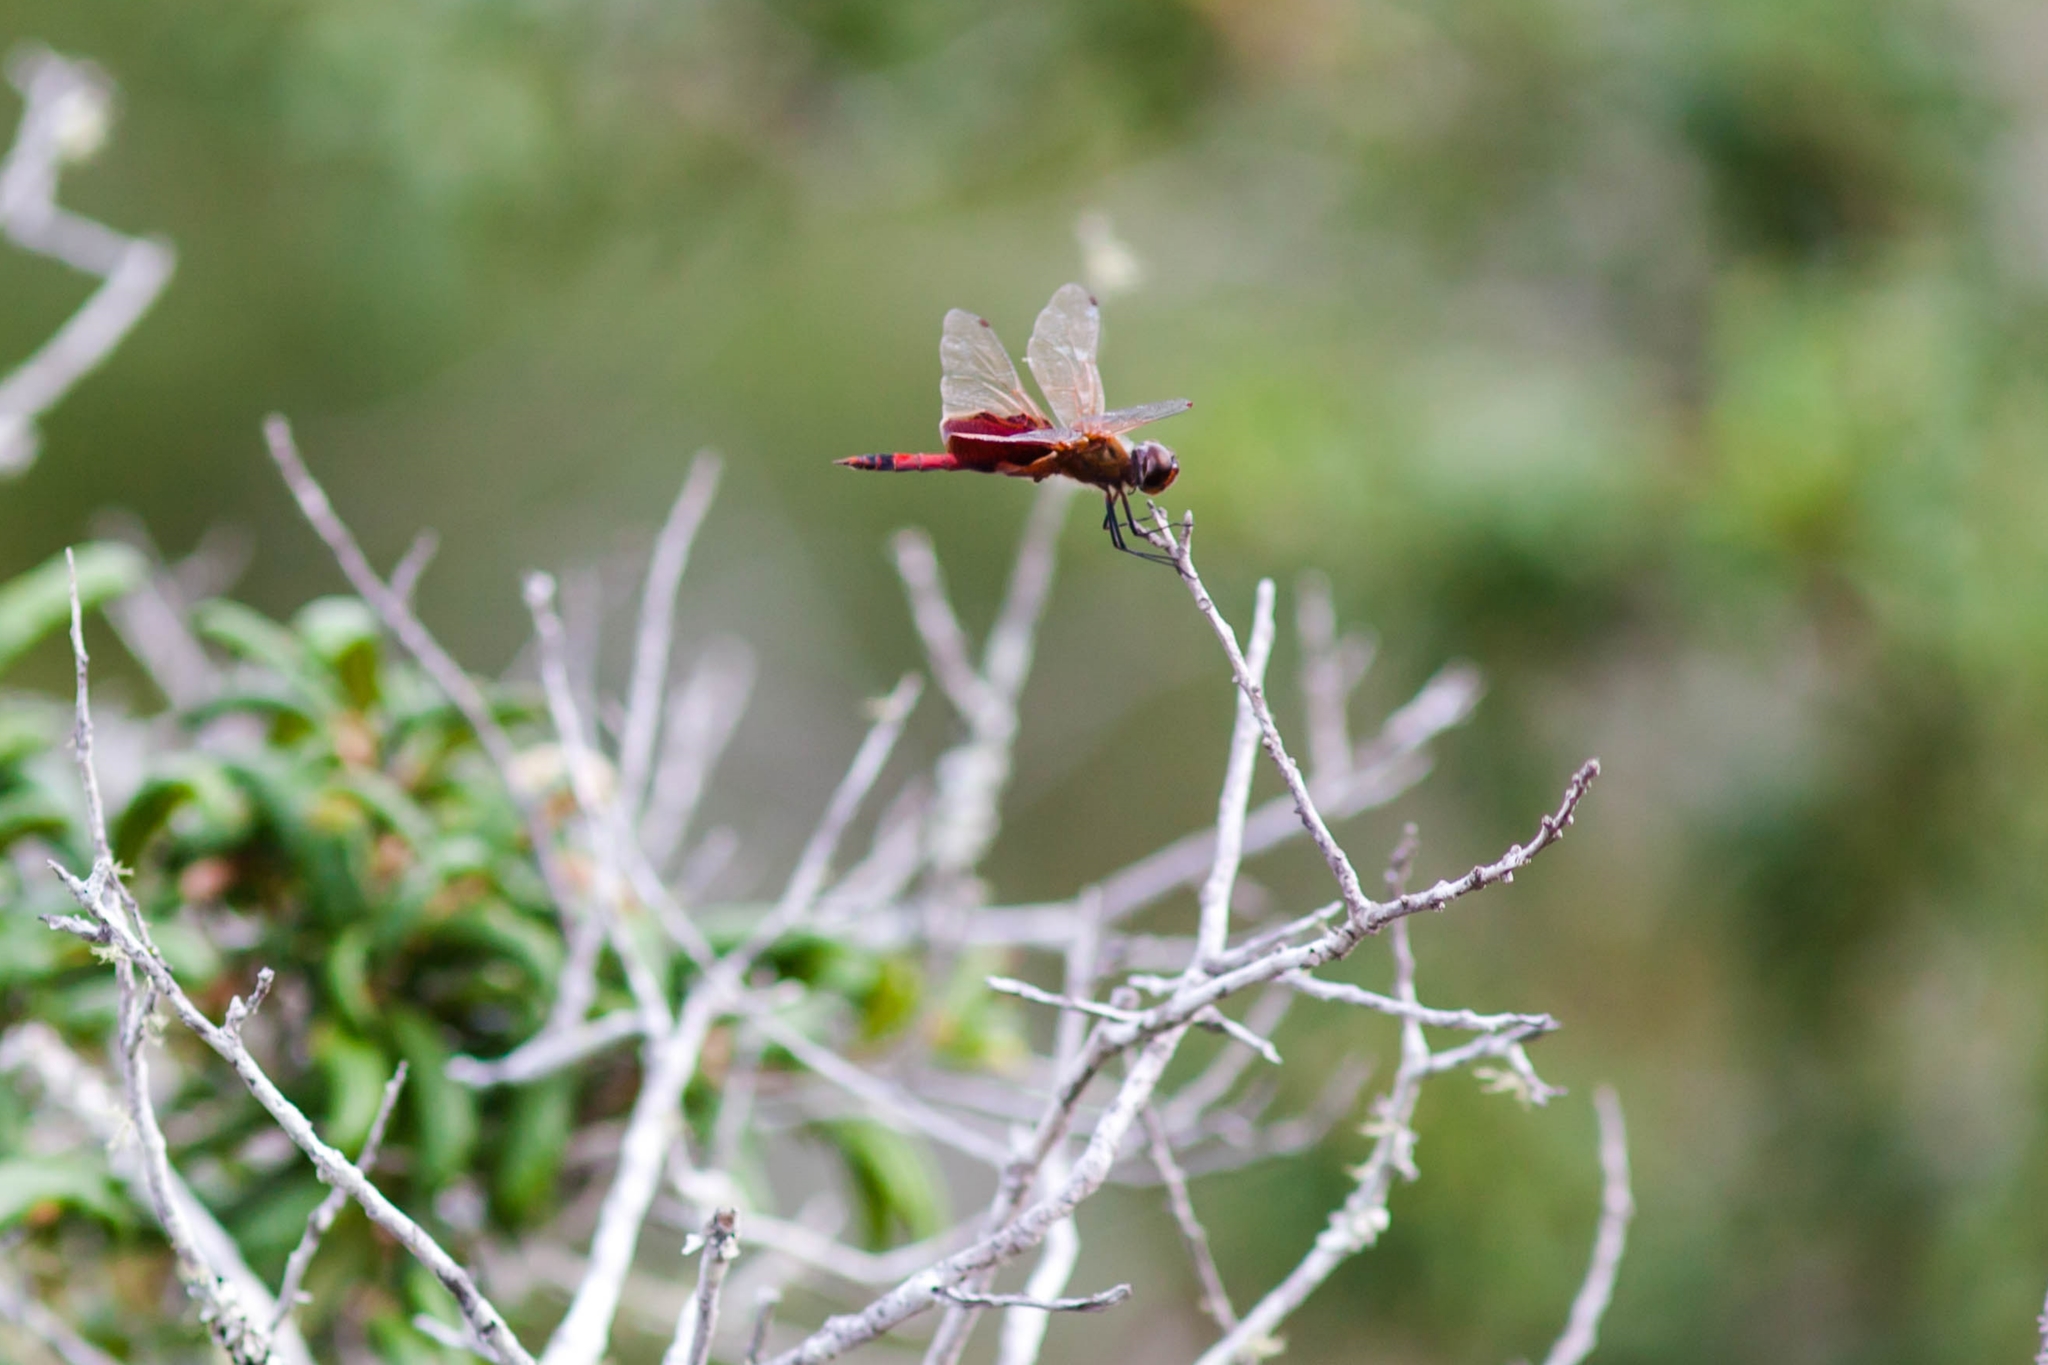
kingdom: Animalia
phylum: Arthropoda
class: Insecta
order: Odonata
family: Libellulidae
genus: Tramea
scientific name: Tramea carolina
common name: Carolina saddlebags
